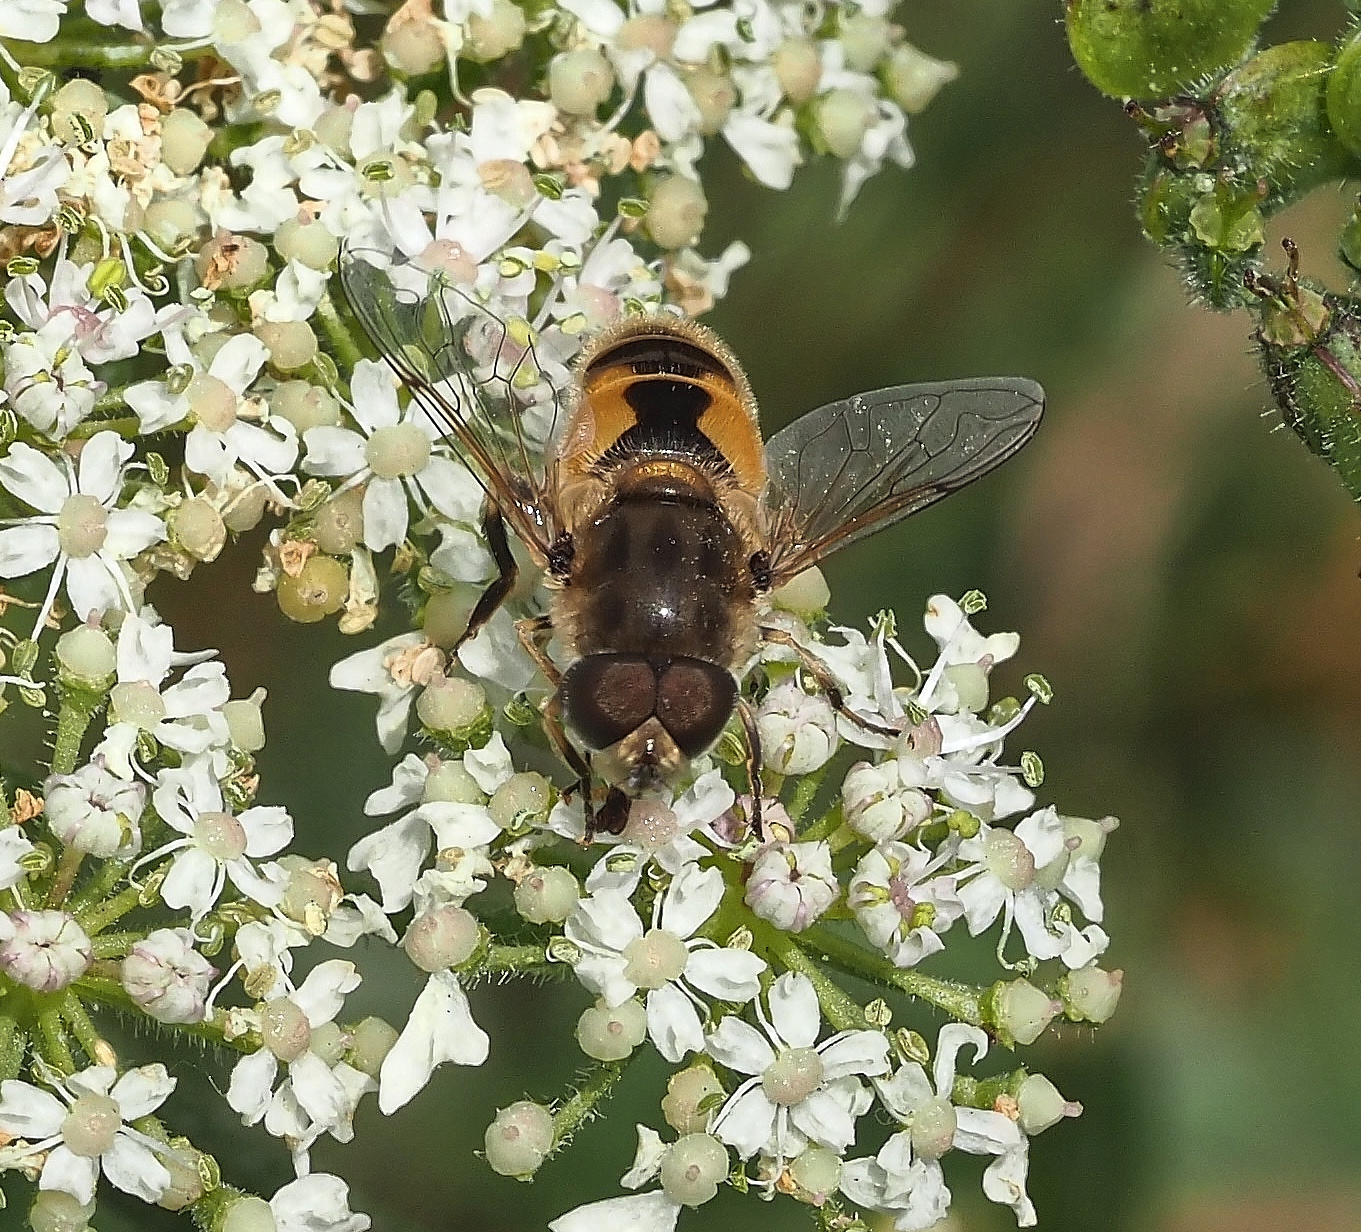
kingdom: Animalia
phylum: Arthropoda
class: Insecta
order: Diptera
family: Syrphidae
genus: Eristalis
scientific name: Eristalis arbustorum
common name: Hover fly
